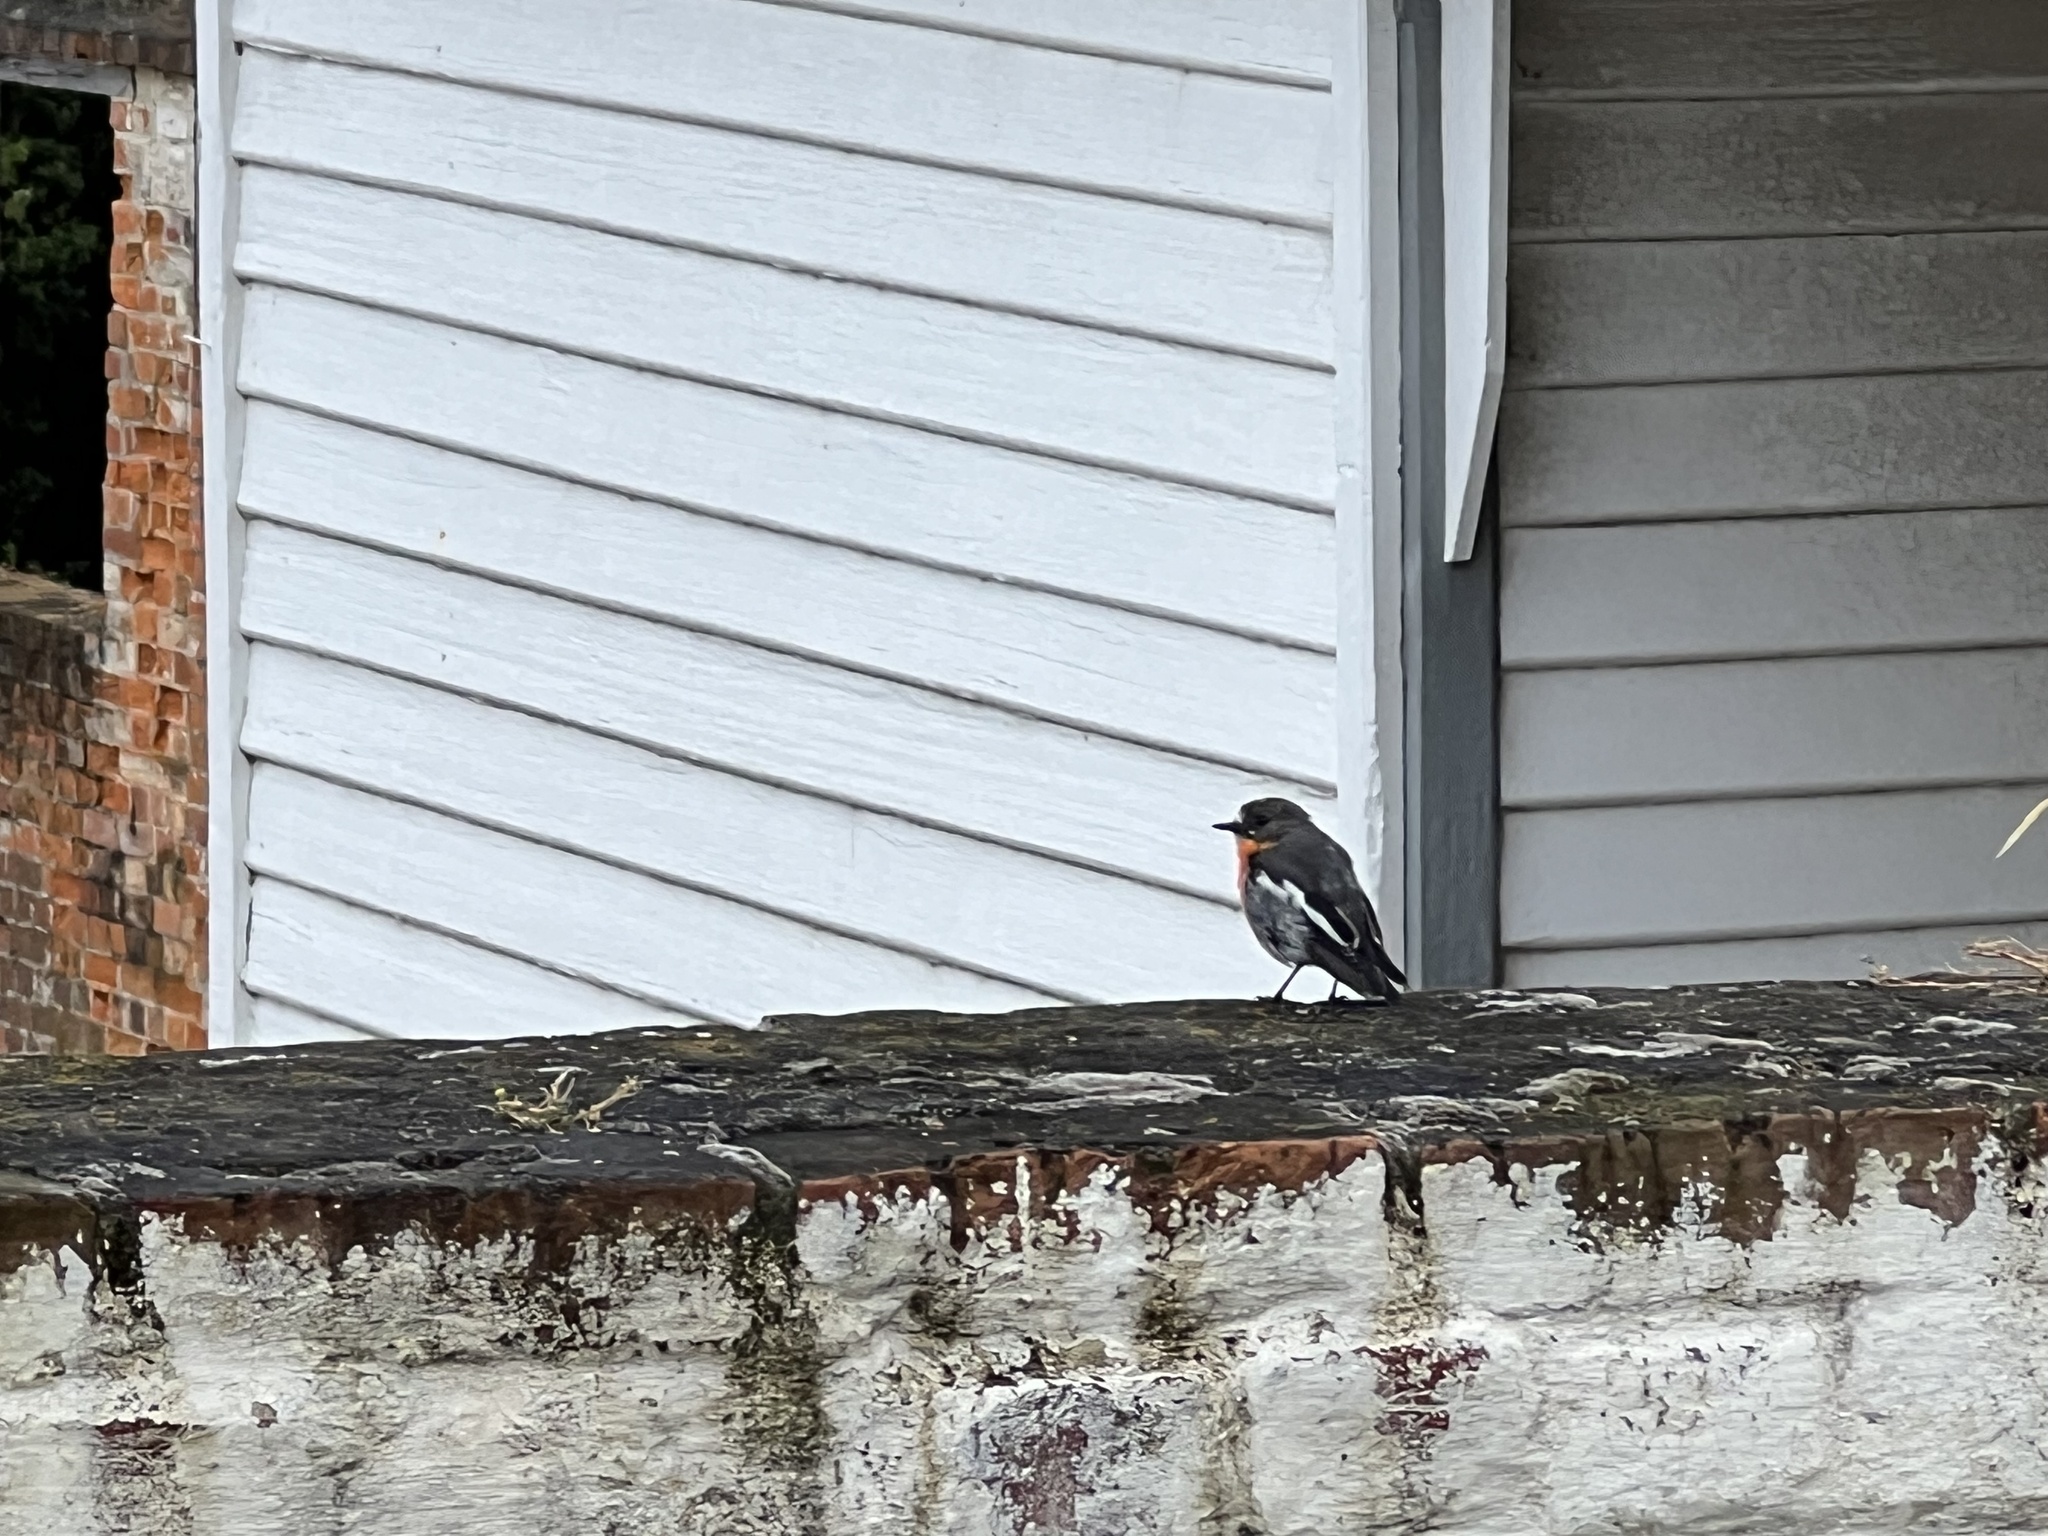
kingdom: Animalia
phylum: Chordata
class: Aves
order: Passeriformes
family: Petroicidae
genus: Petroica
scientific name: Petroica phoenicea
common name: Flame robin
